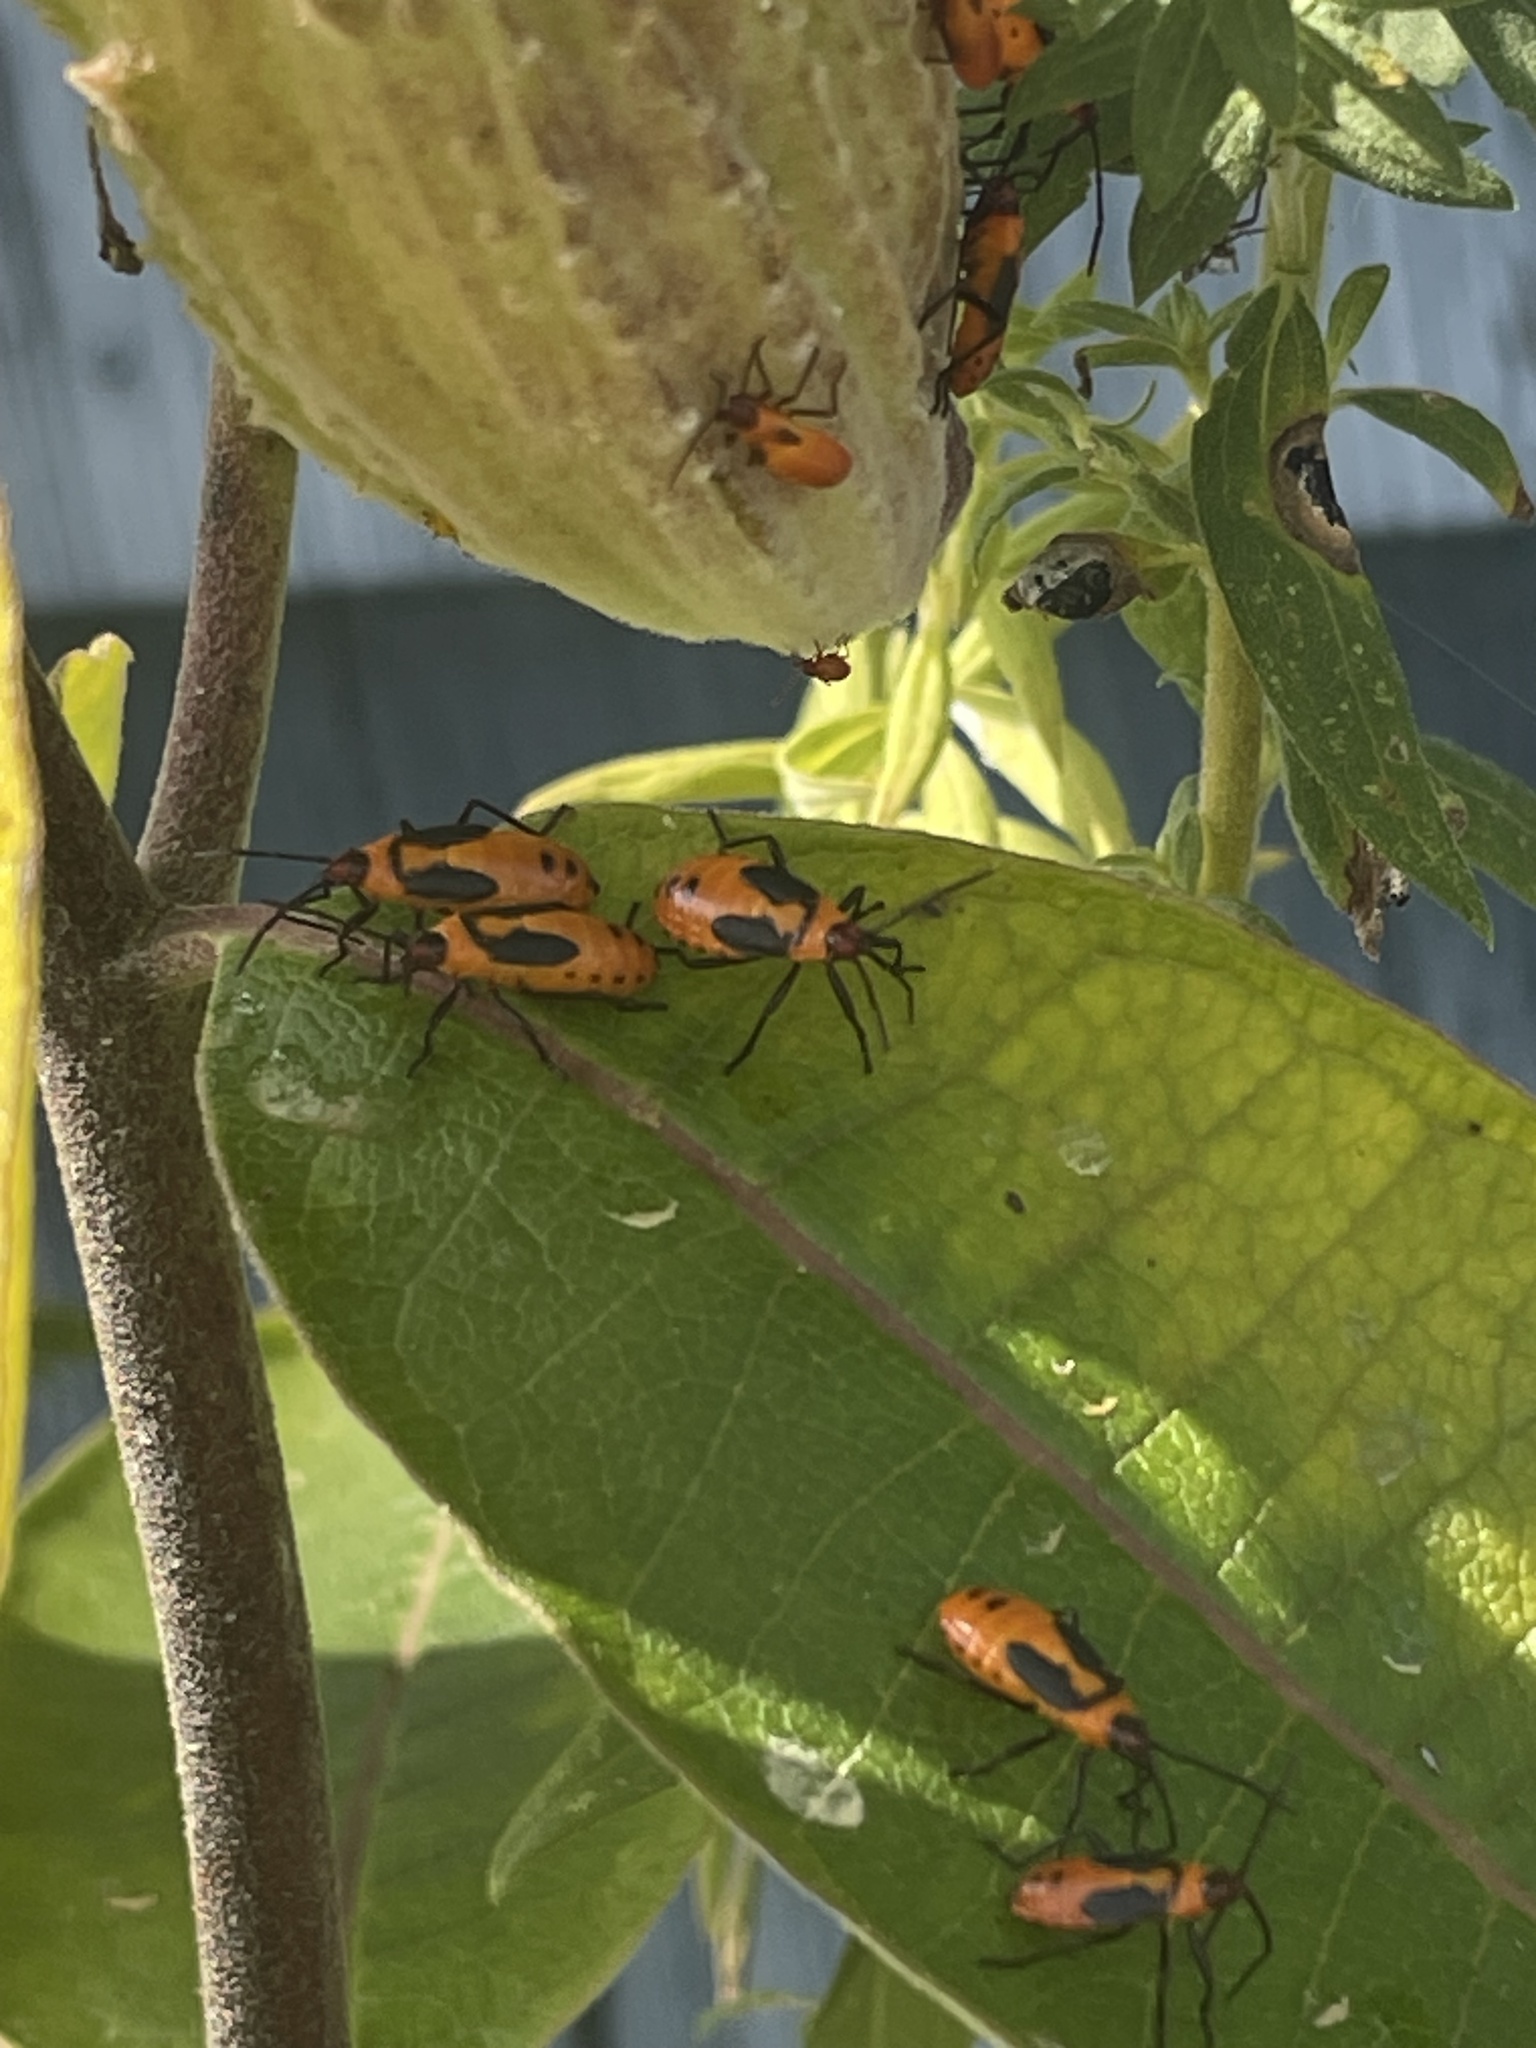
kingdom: Animalia
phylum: Arthropoda
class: Insecta
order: Hemiptera
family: Lygaeidae
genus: Oncopeltus
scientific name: Oncopeltus fasciatus
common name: Large milkweed bug
